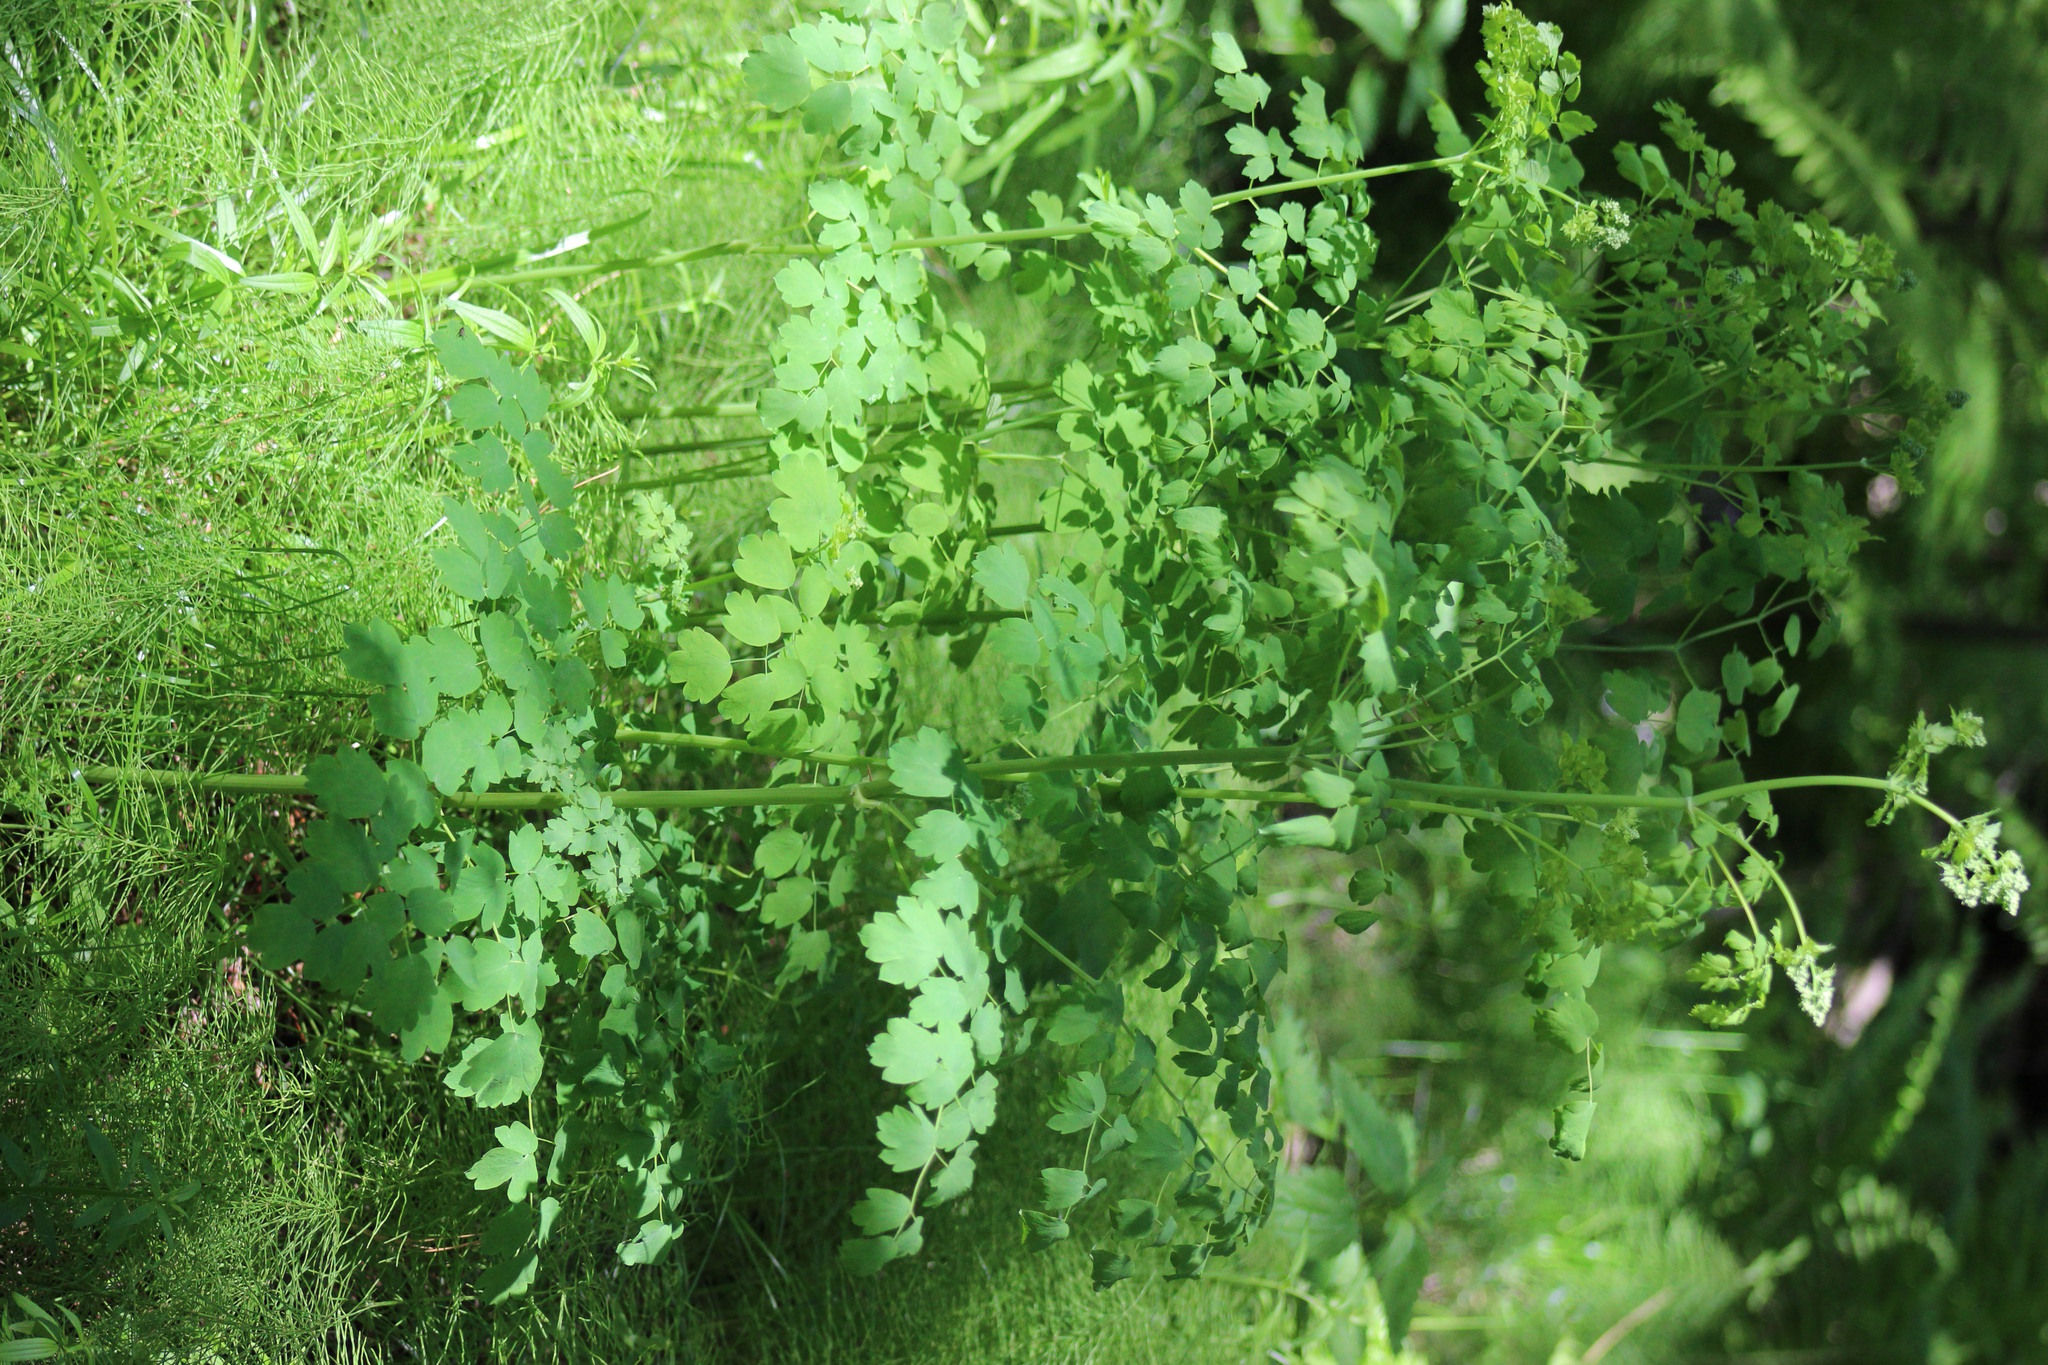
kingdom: Plantae
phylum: Tracheophyta
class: Magnoliopsida
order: Ranunculales
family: Ranunculaceae
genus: Thalictrum
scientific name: Thalictrum minus
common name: Lesser meadow-rue
